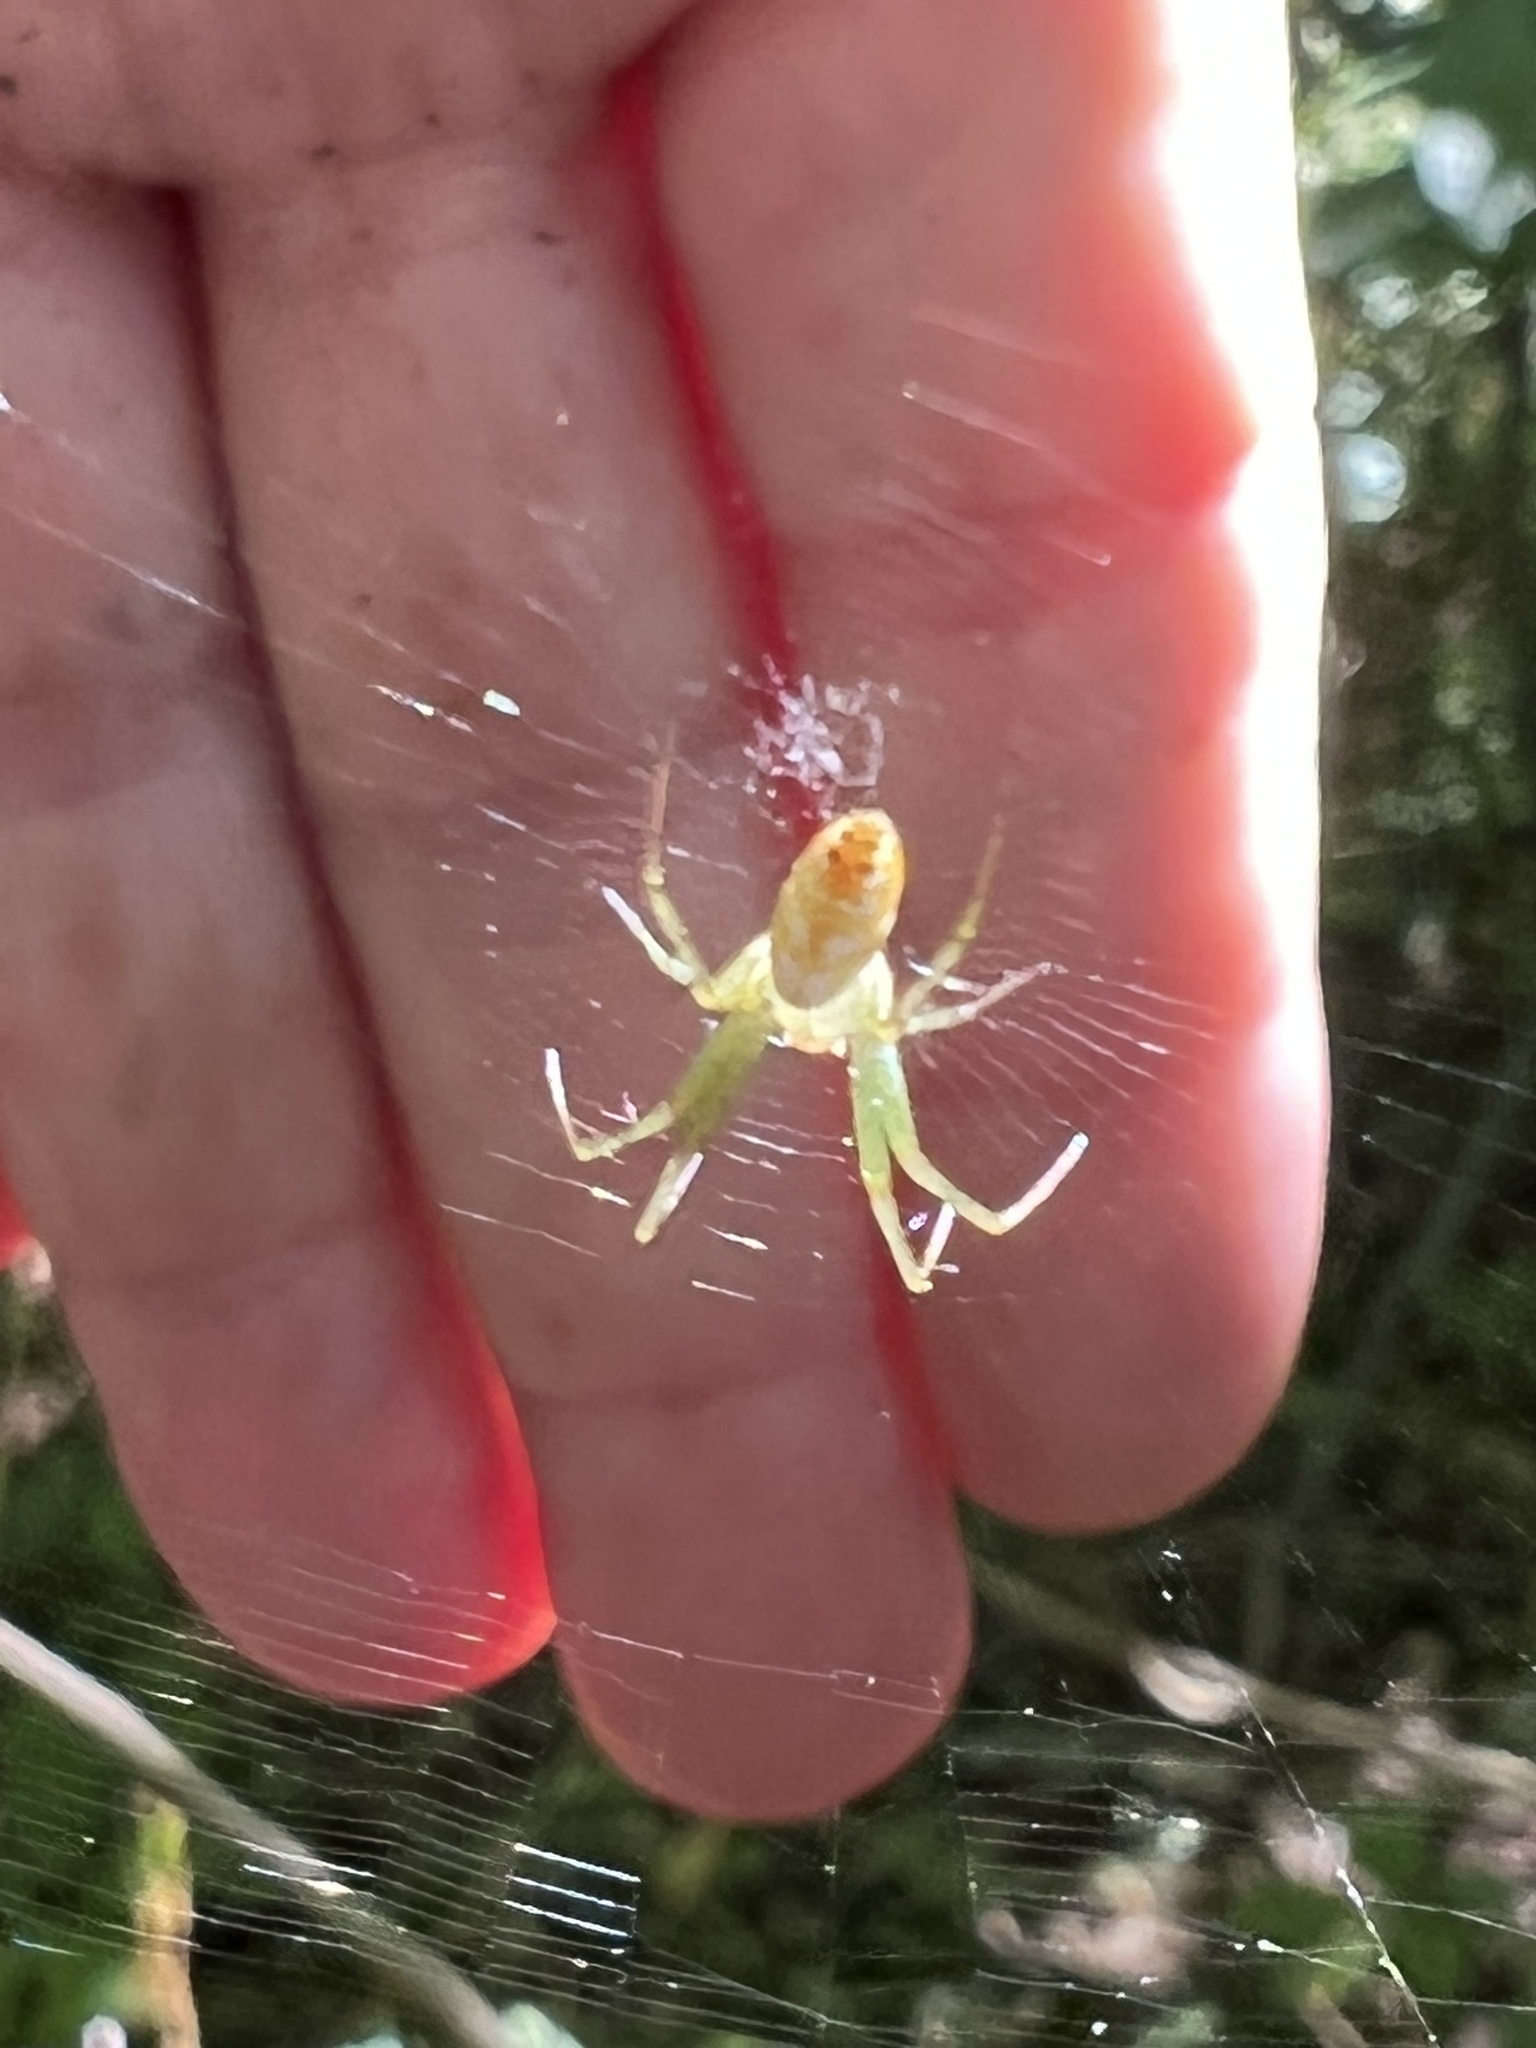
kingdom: Animalia
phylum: Arthropoda
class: Arachnida
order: Araneae
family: Araneidae
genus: Mangora
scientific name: Mangora maculata
